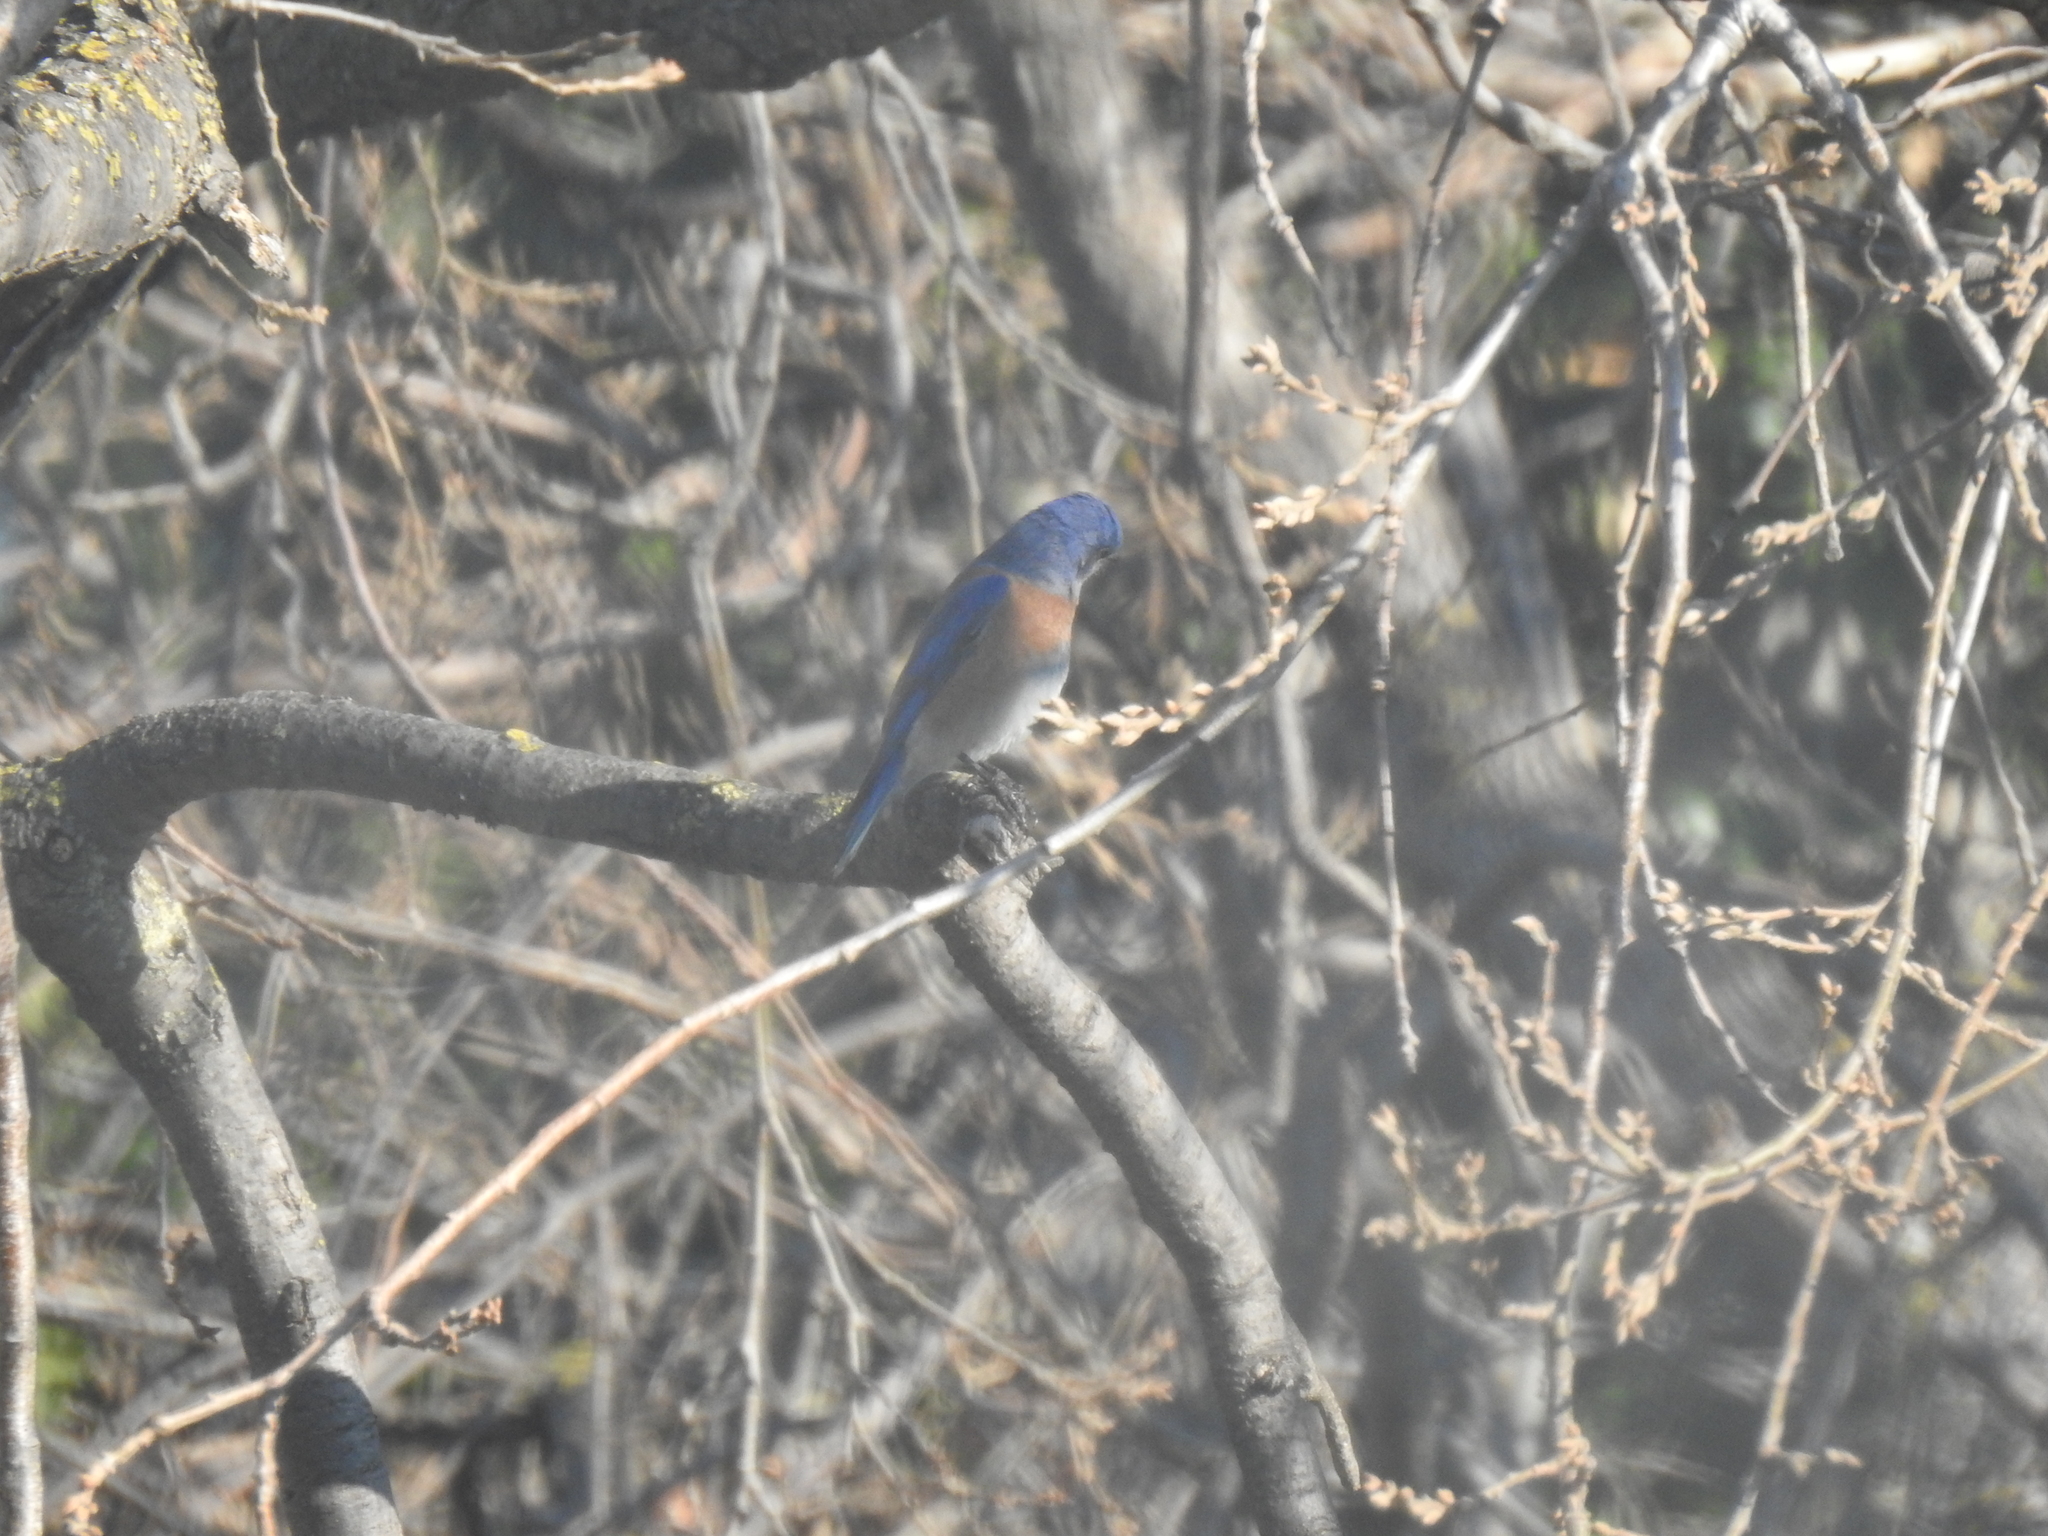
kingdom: Animalia
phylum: Chordata
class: Aves
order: Passeriformes
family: Turdidae
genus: Sialia
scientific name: Sialia mexicana
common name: Western bluebird
